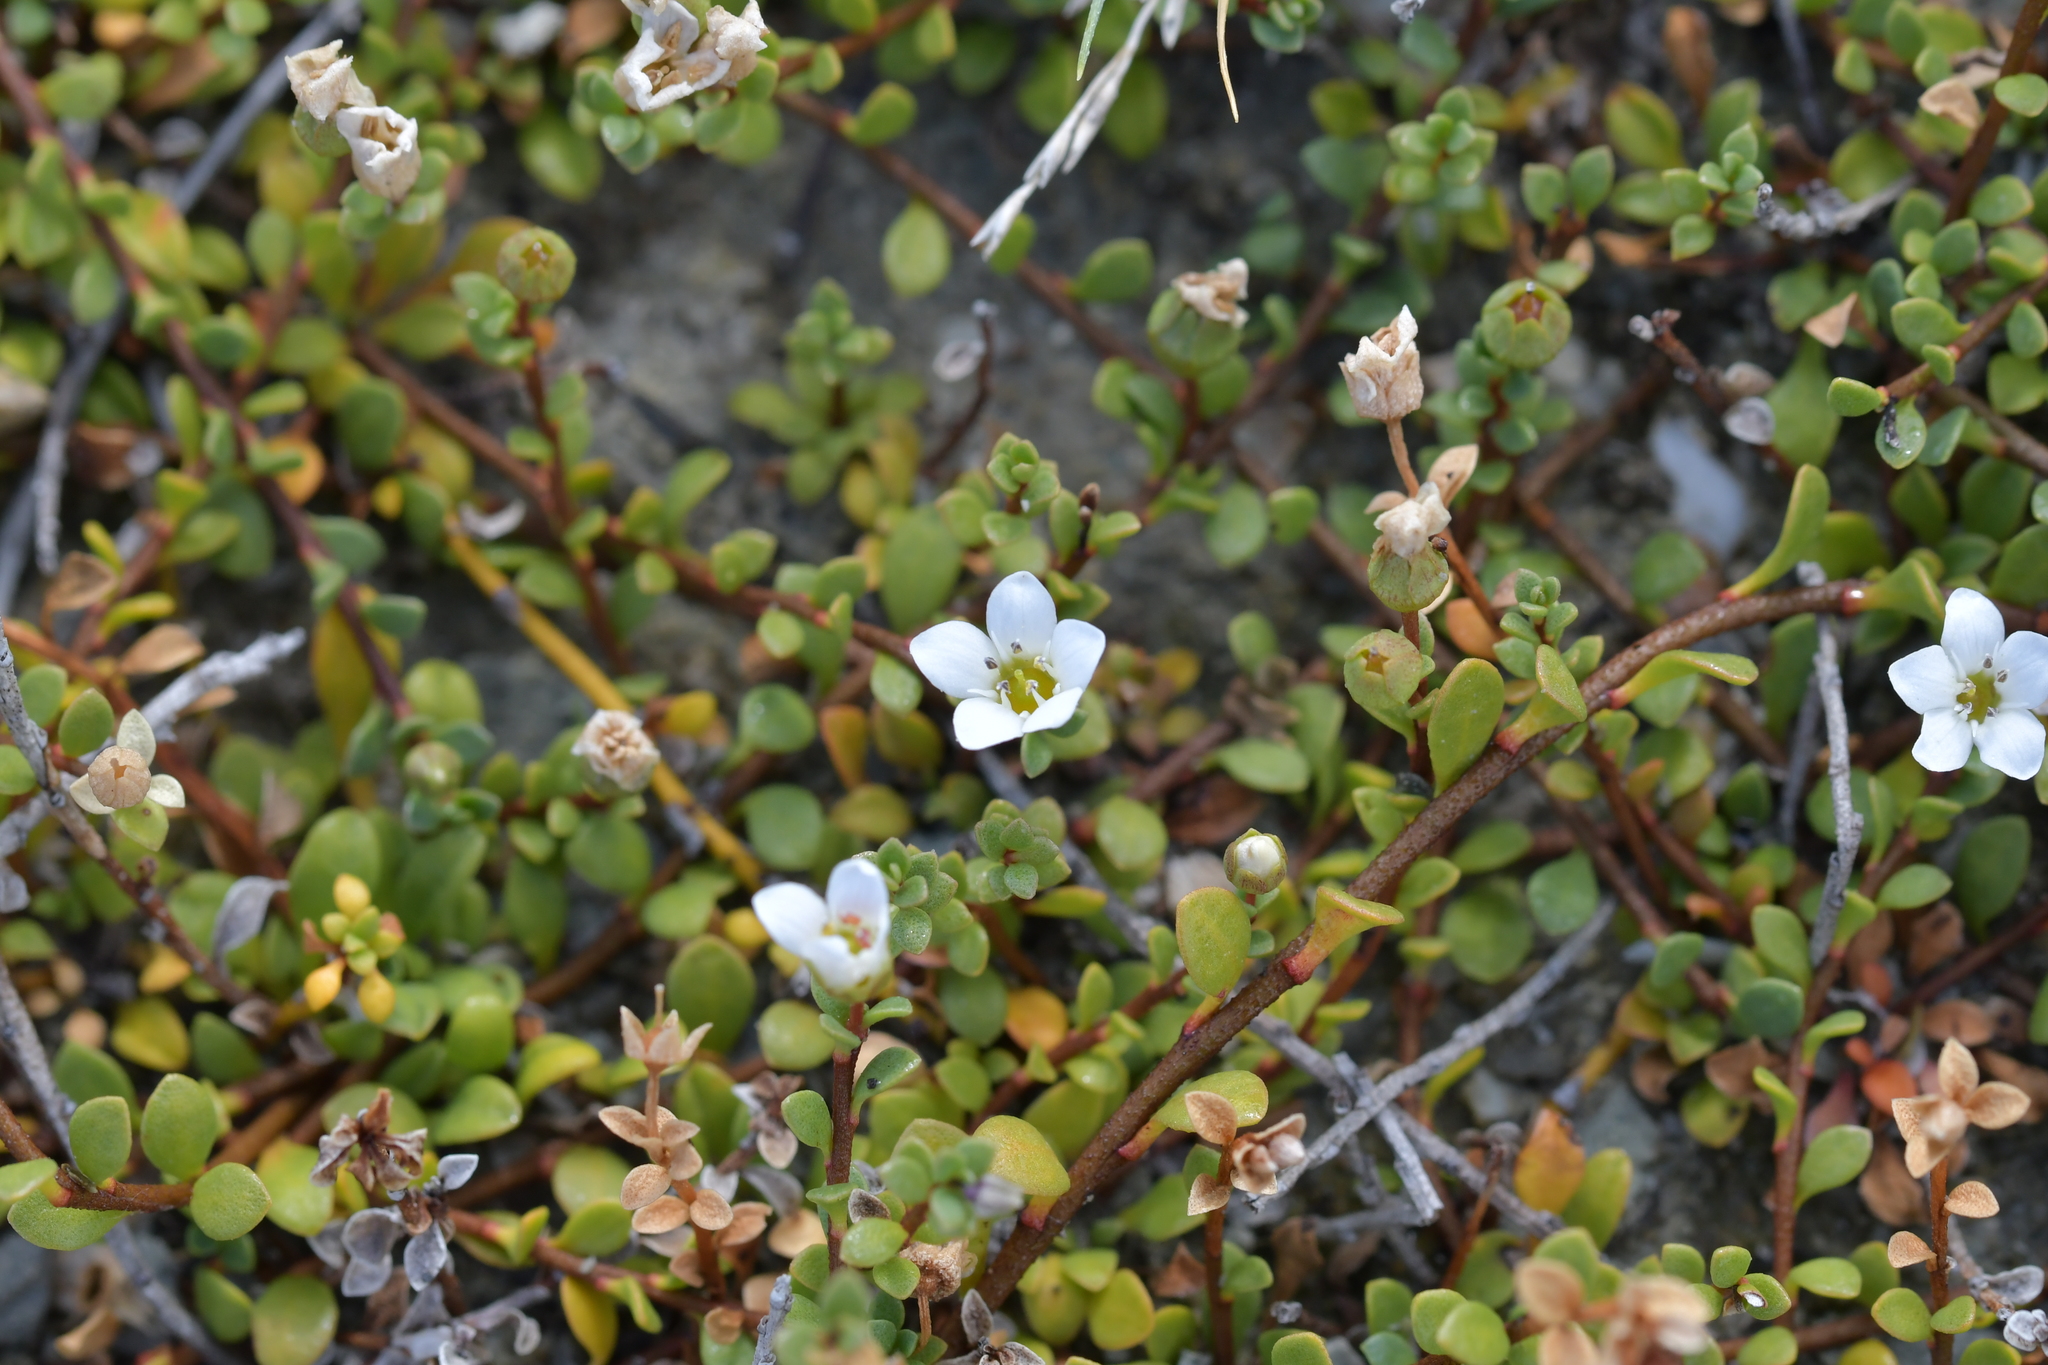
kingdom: Plantae
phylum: Tracheophyta
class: Magnoliopsida
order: Ericales
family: Primulaceae
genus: Samolus
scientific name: Samolus repens
